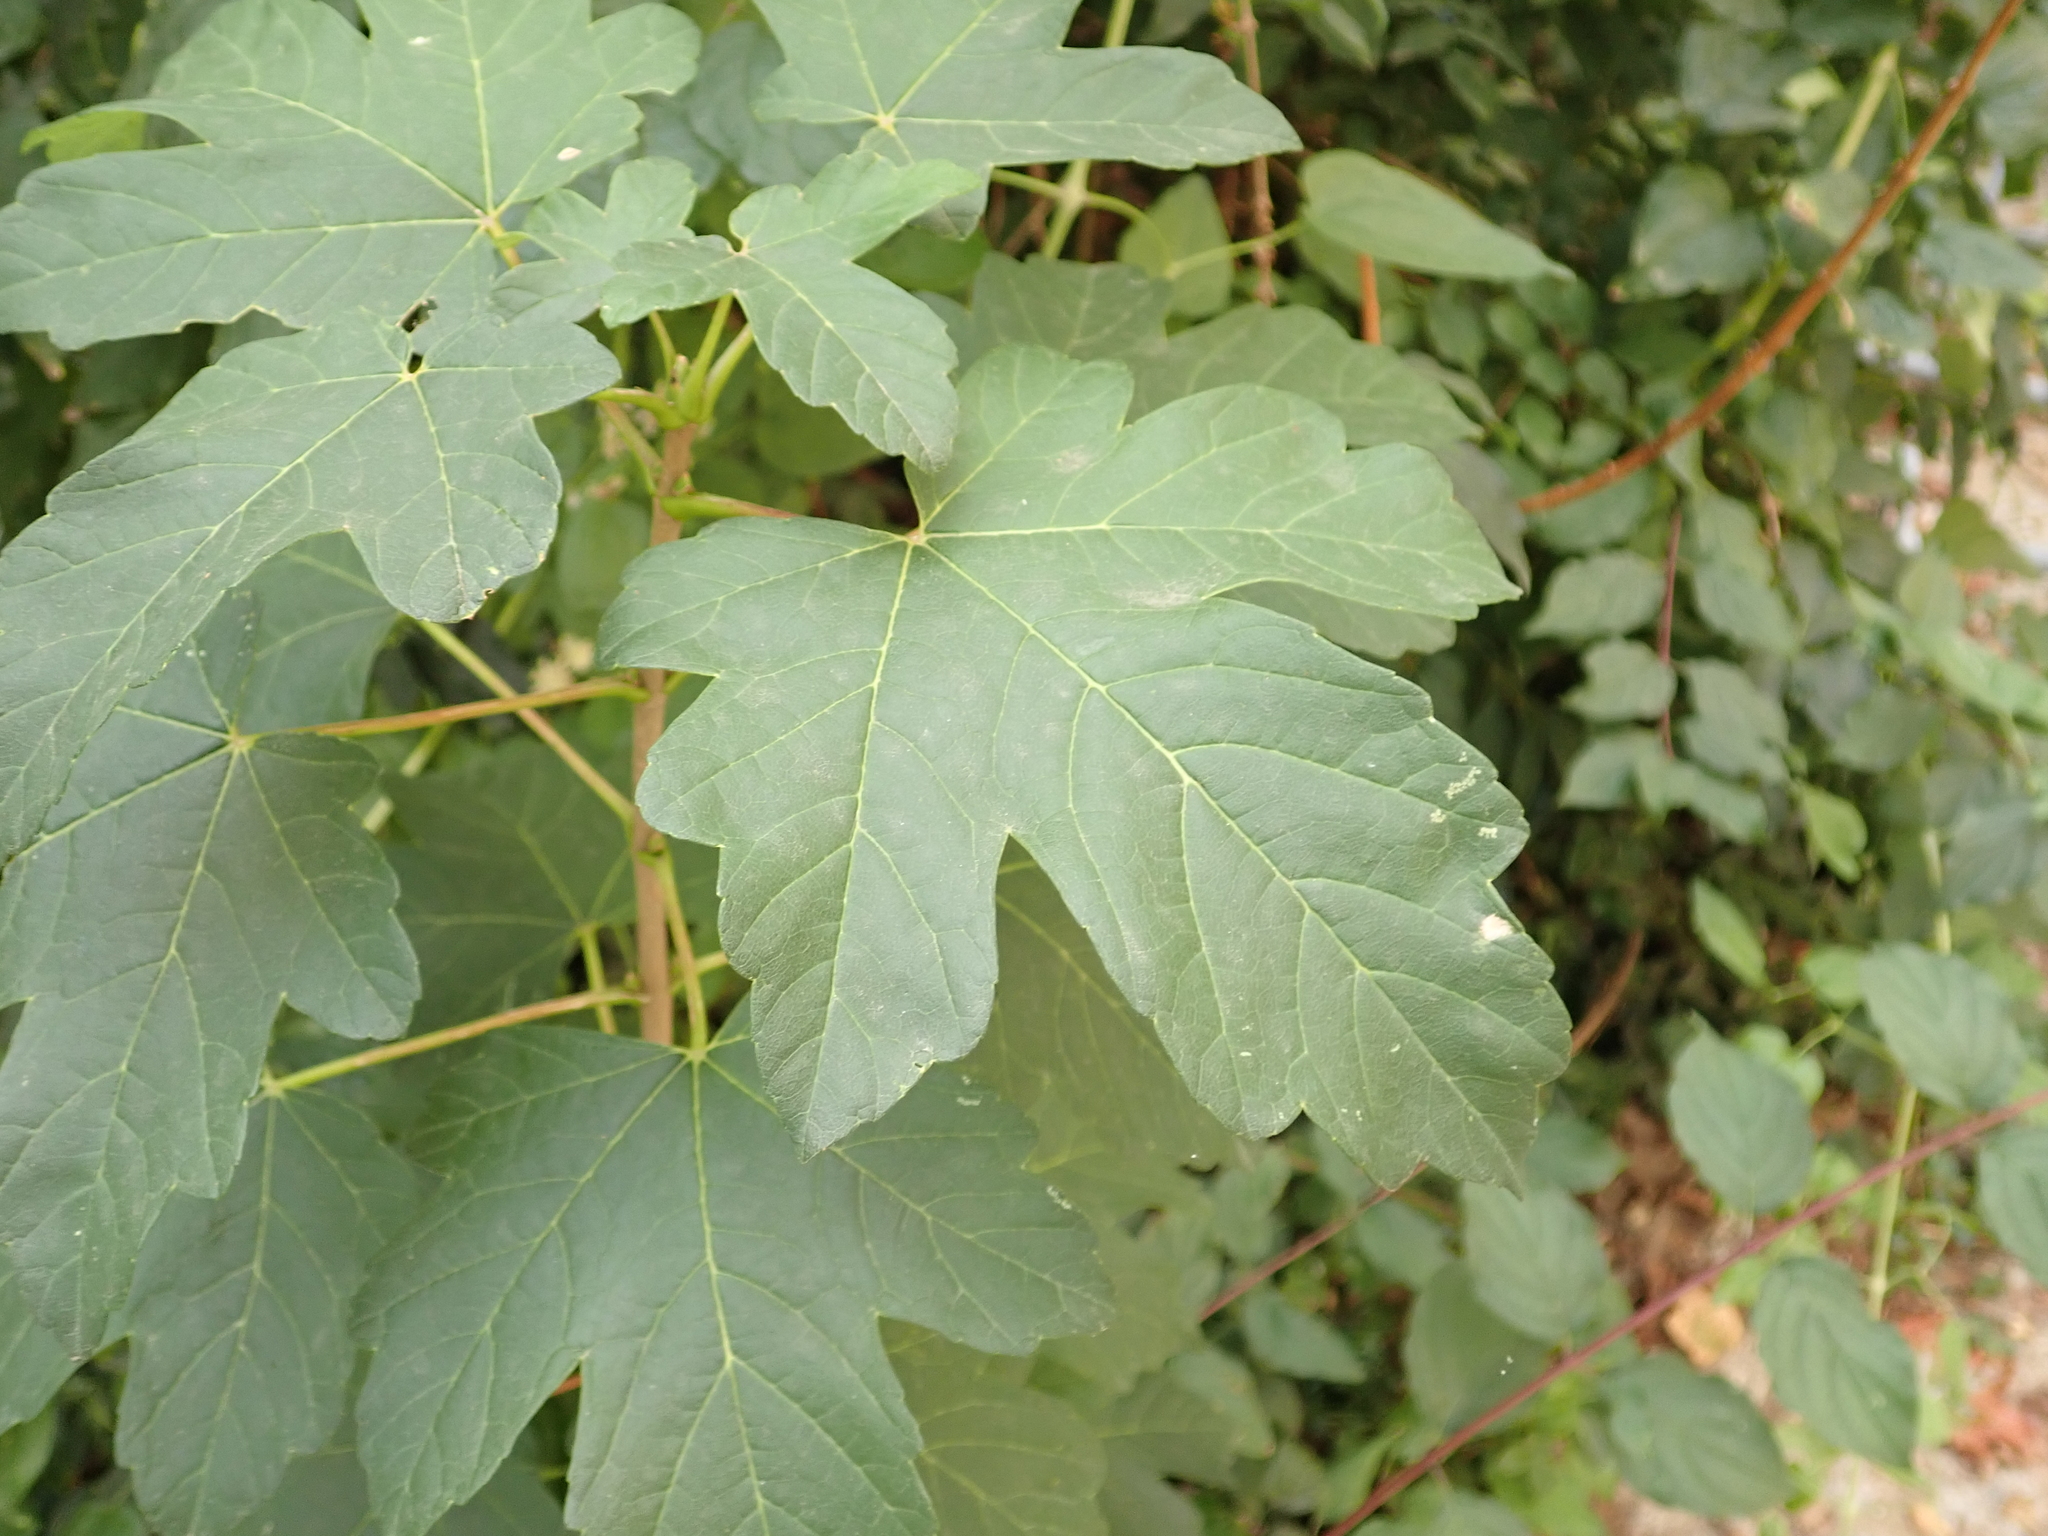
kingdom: Plantae
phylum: Tracheophyta
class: Magnoliopsida
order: Sapindales
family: Sapindaceae
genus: Acer
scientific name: Acer campestre
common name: Field maple
